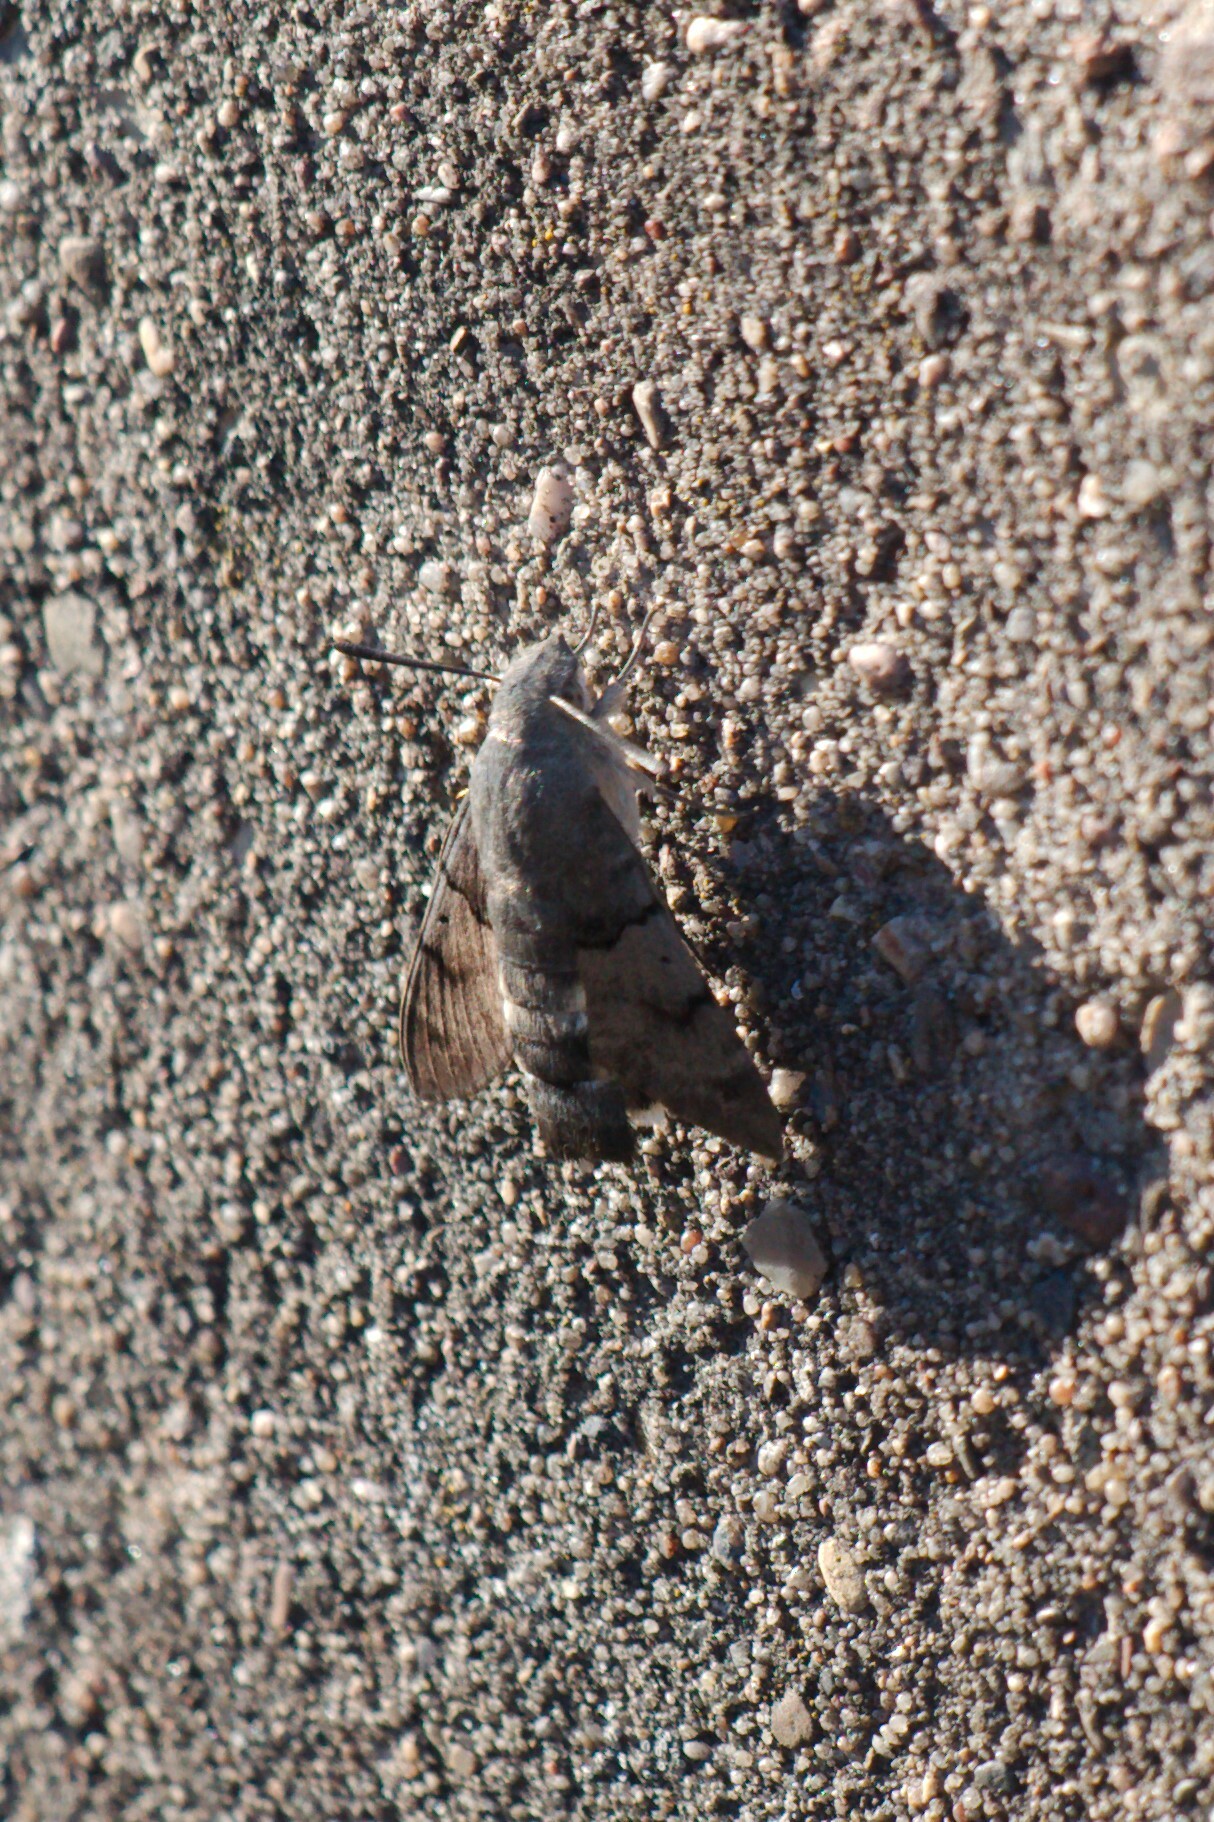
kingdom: Animalia
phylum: Arthropoda
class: Insecta
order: Lepidoptera
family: Sphingidae
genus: Macroglossum
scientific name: Macroglossum stellatarum
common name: Humming-bird hawk-moth
